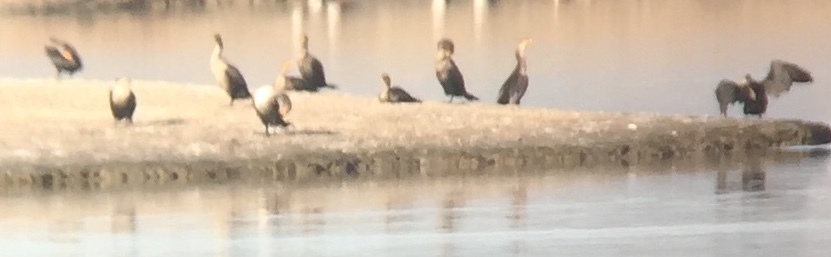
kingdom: Animalia
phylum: Chordata
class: Aves
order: Suliformes
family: Phalacrocoracidae
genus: Phalacrocorax
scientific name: Phalacrocorax auritus
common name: Double-crested cormorant
